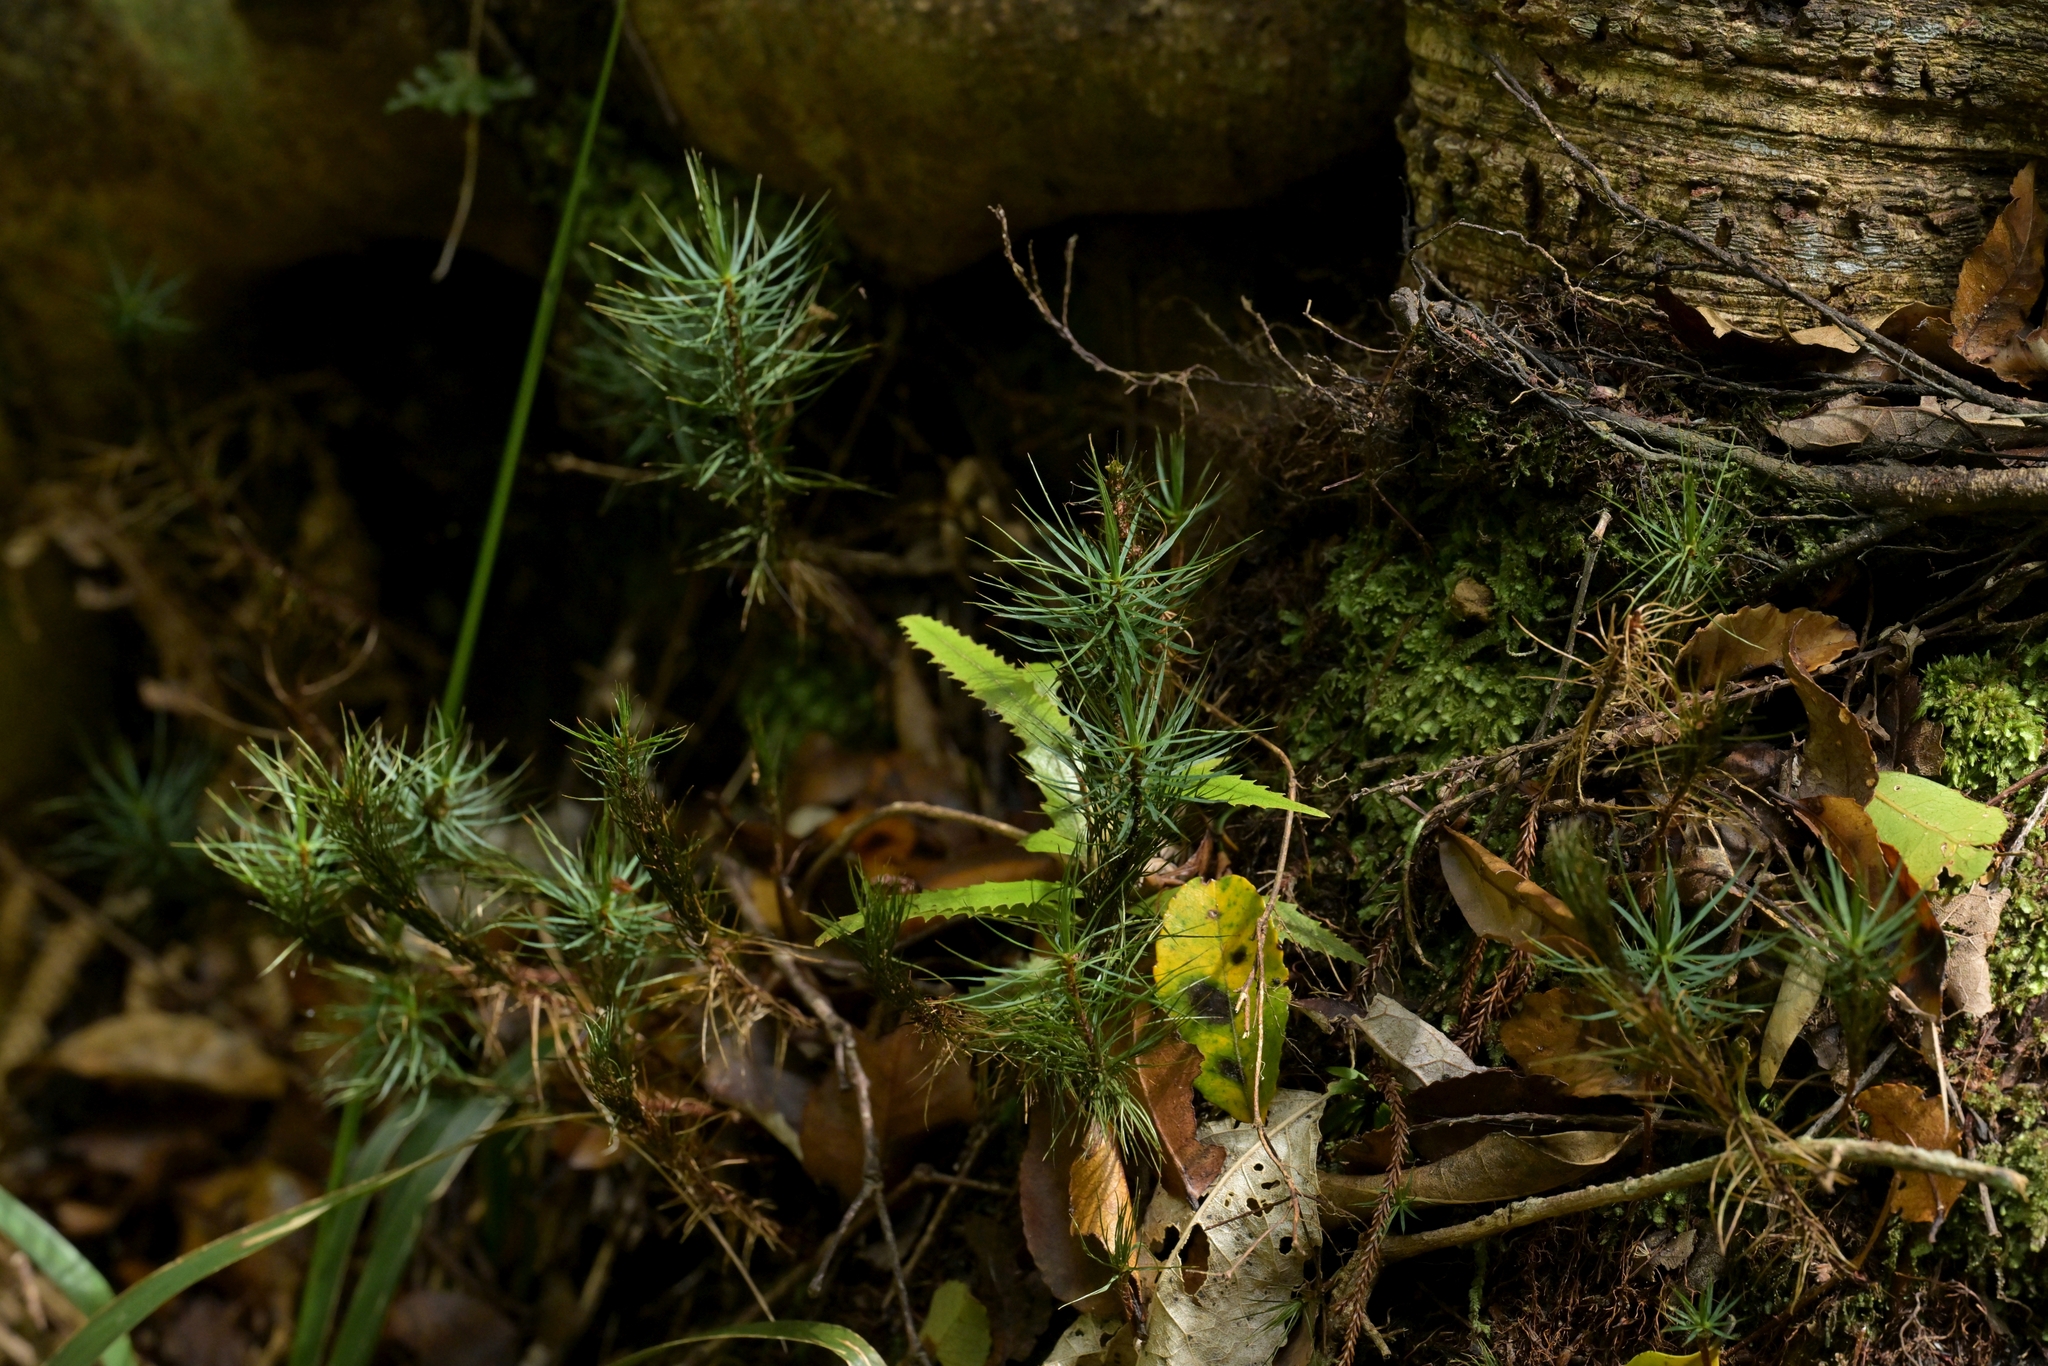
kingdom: Plantae
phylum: Bryophyta
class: Polytrichopsida
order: Polytrichales
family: Polytrichaceae
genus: Dawsonia
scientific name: Dawsonia superba
